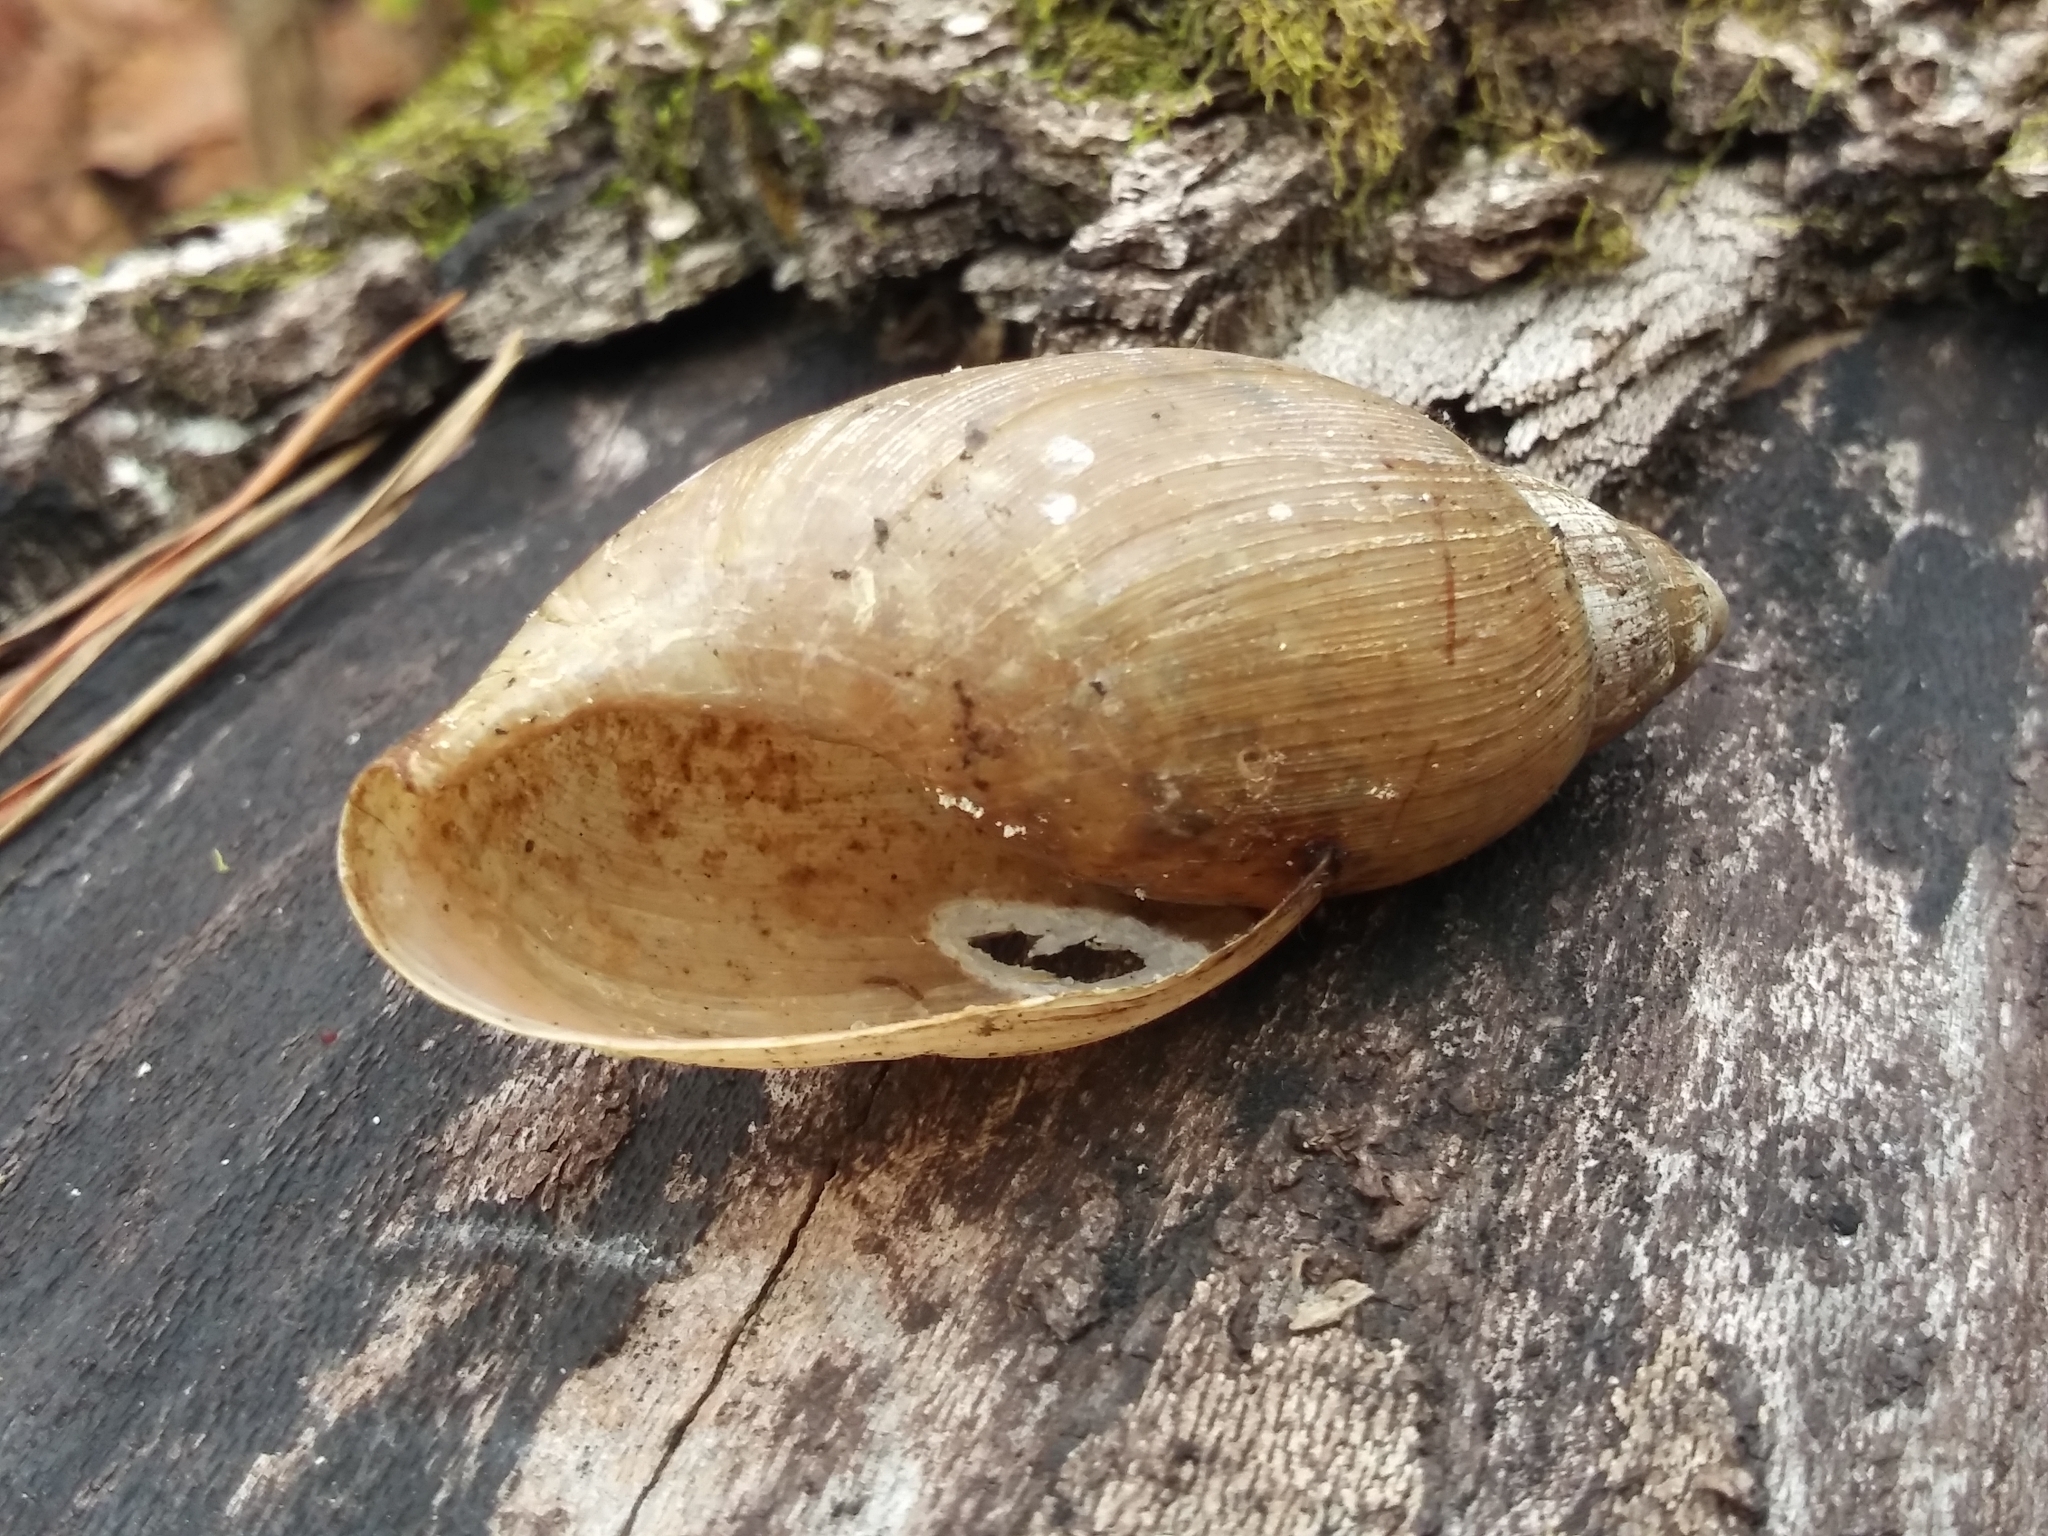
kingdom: Animalia
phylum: Mollusca
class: Gastropoda
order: Stylommatophora
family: Spiraxidae
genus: Euglandina
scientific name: Euglandina rosea
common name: Rosy wolfsnail
